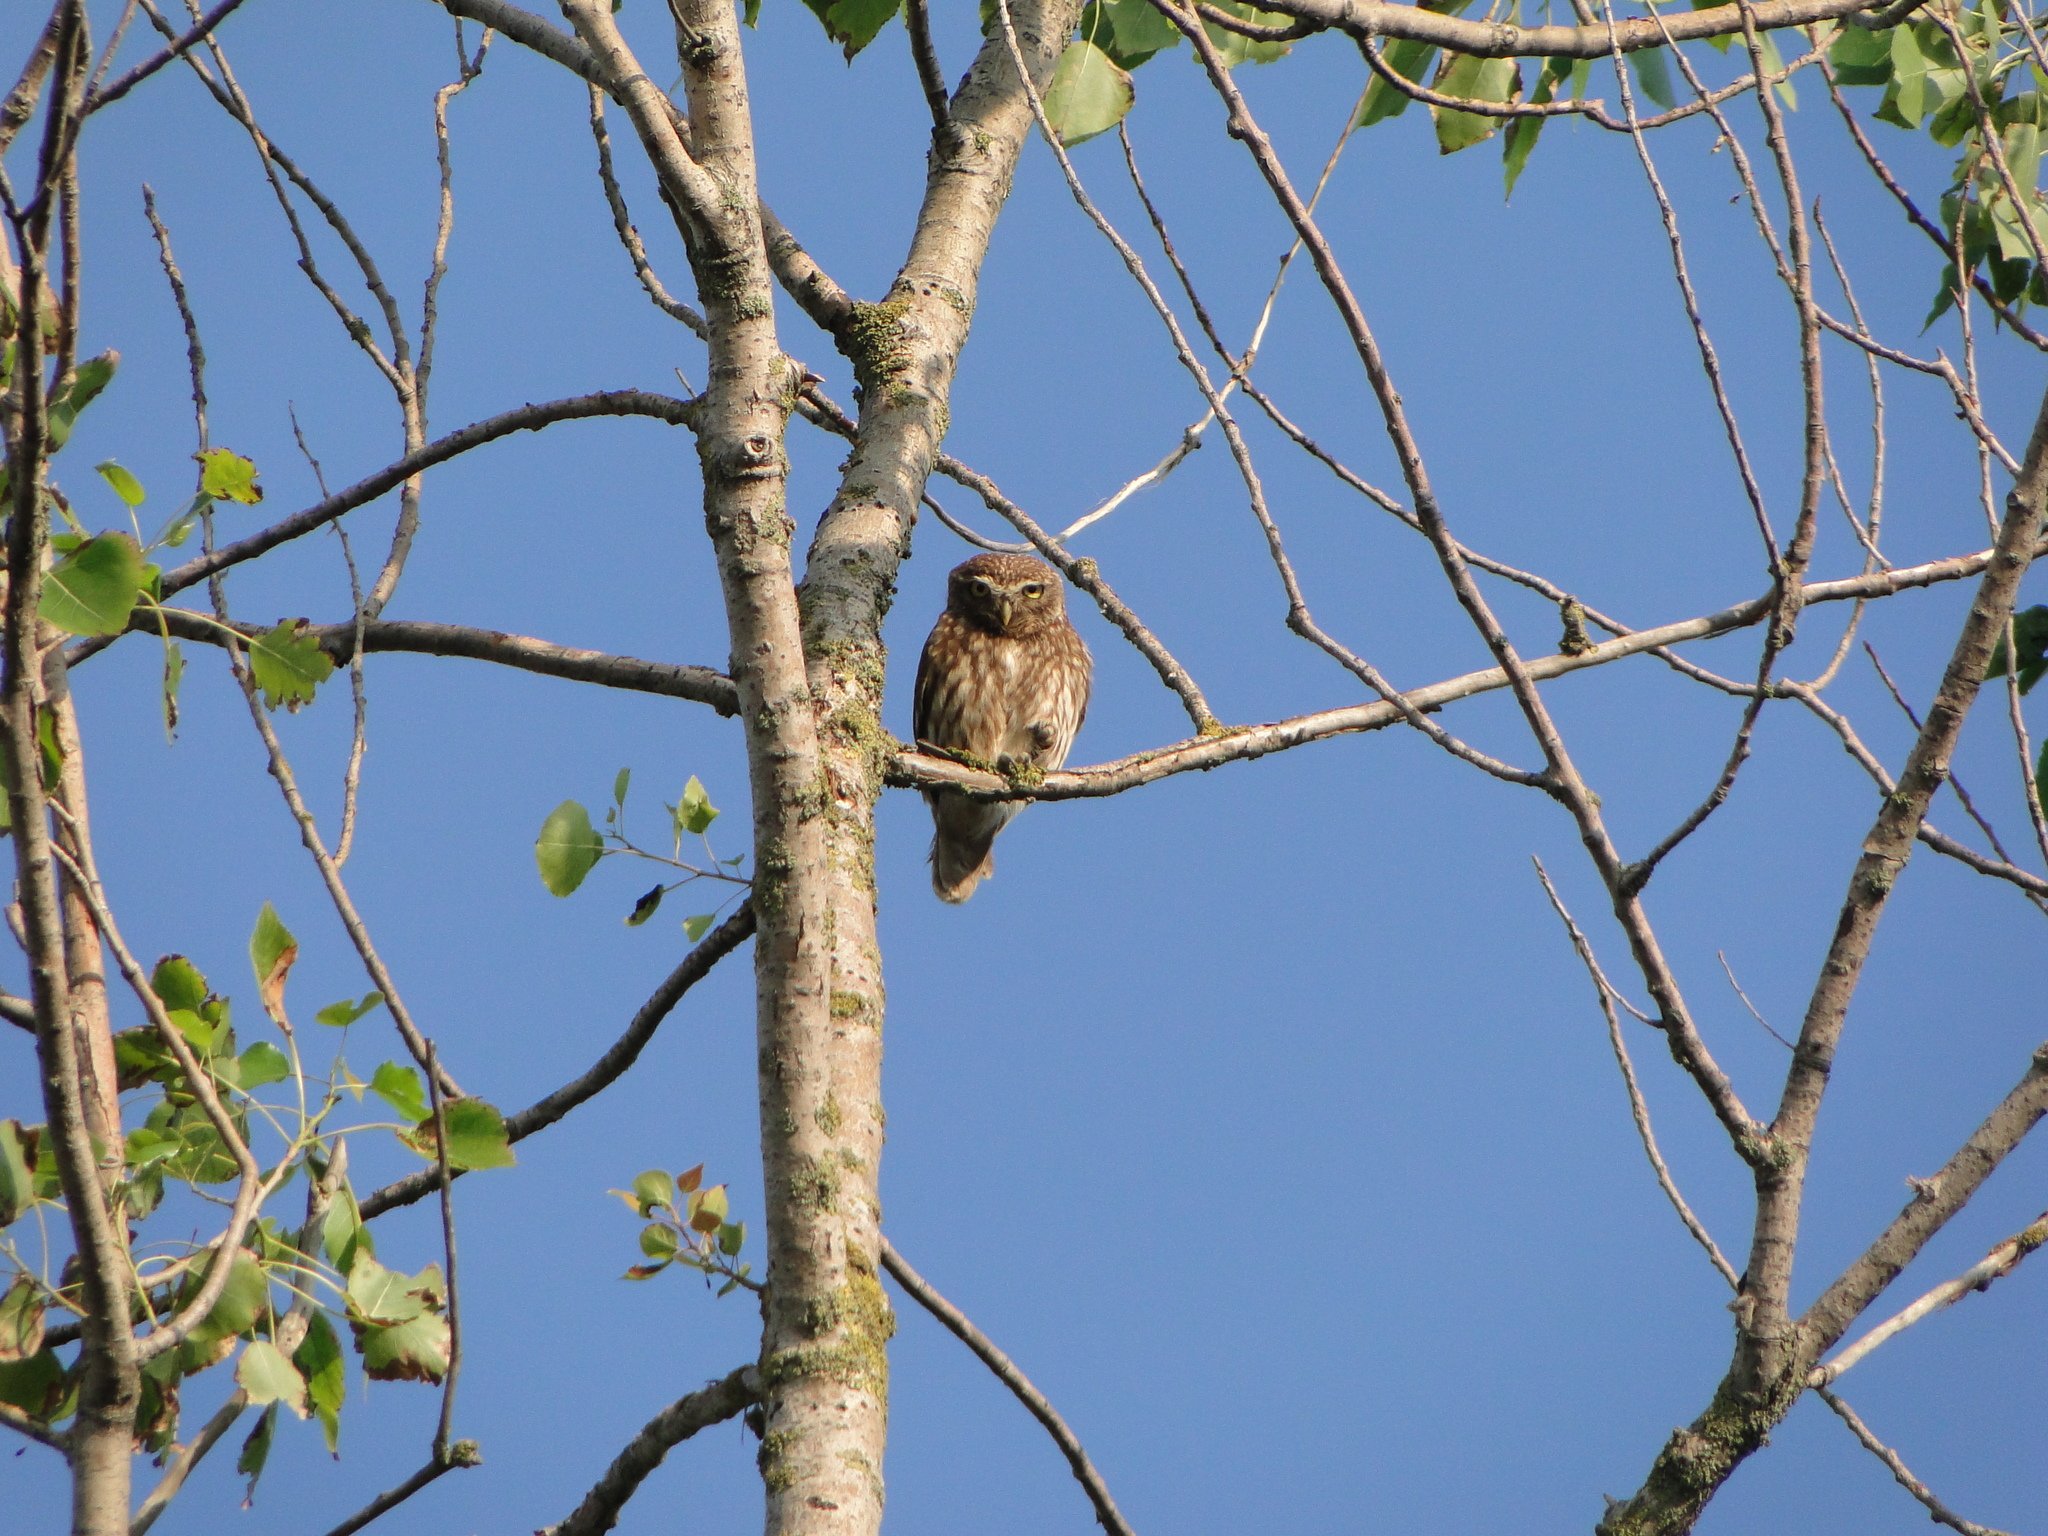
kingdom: Animalia
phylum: Chordata
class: Aves
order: Strigiformes
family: Strigidae
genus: Athene
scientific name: Athene noctua
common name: Little owl
